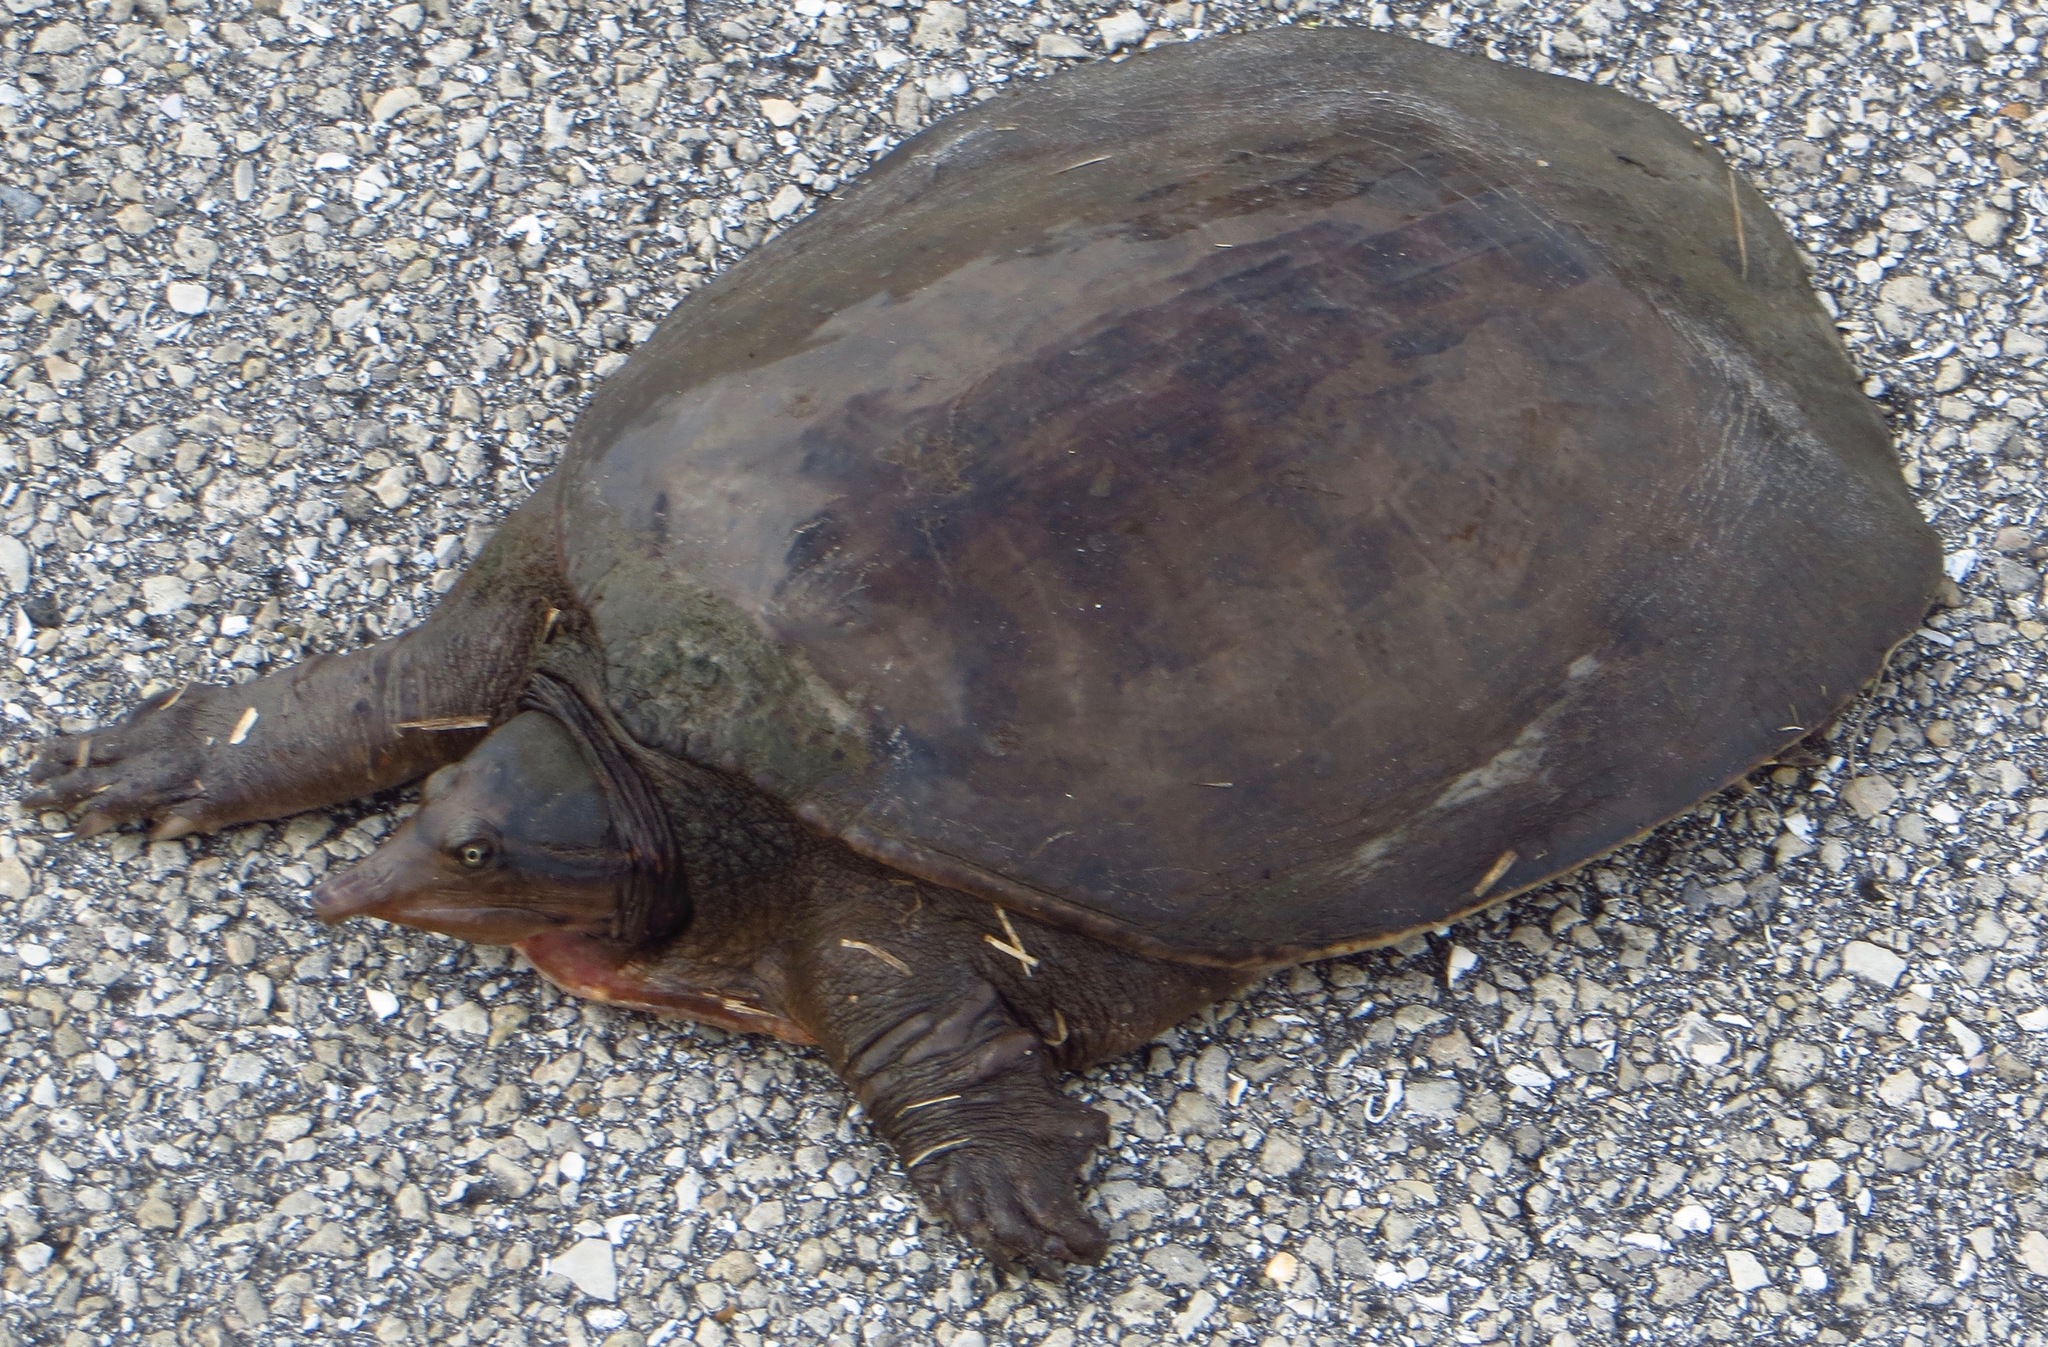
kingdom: Animalia
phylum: Chordata
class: Testudines
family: Trionychidae
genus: Apalone
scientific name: Apalone ferox
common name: Florida softshell turtle
